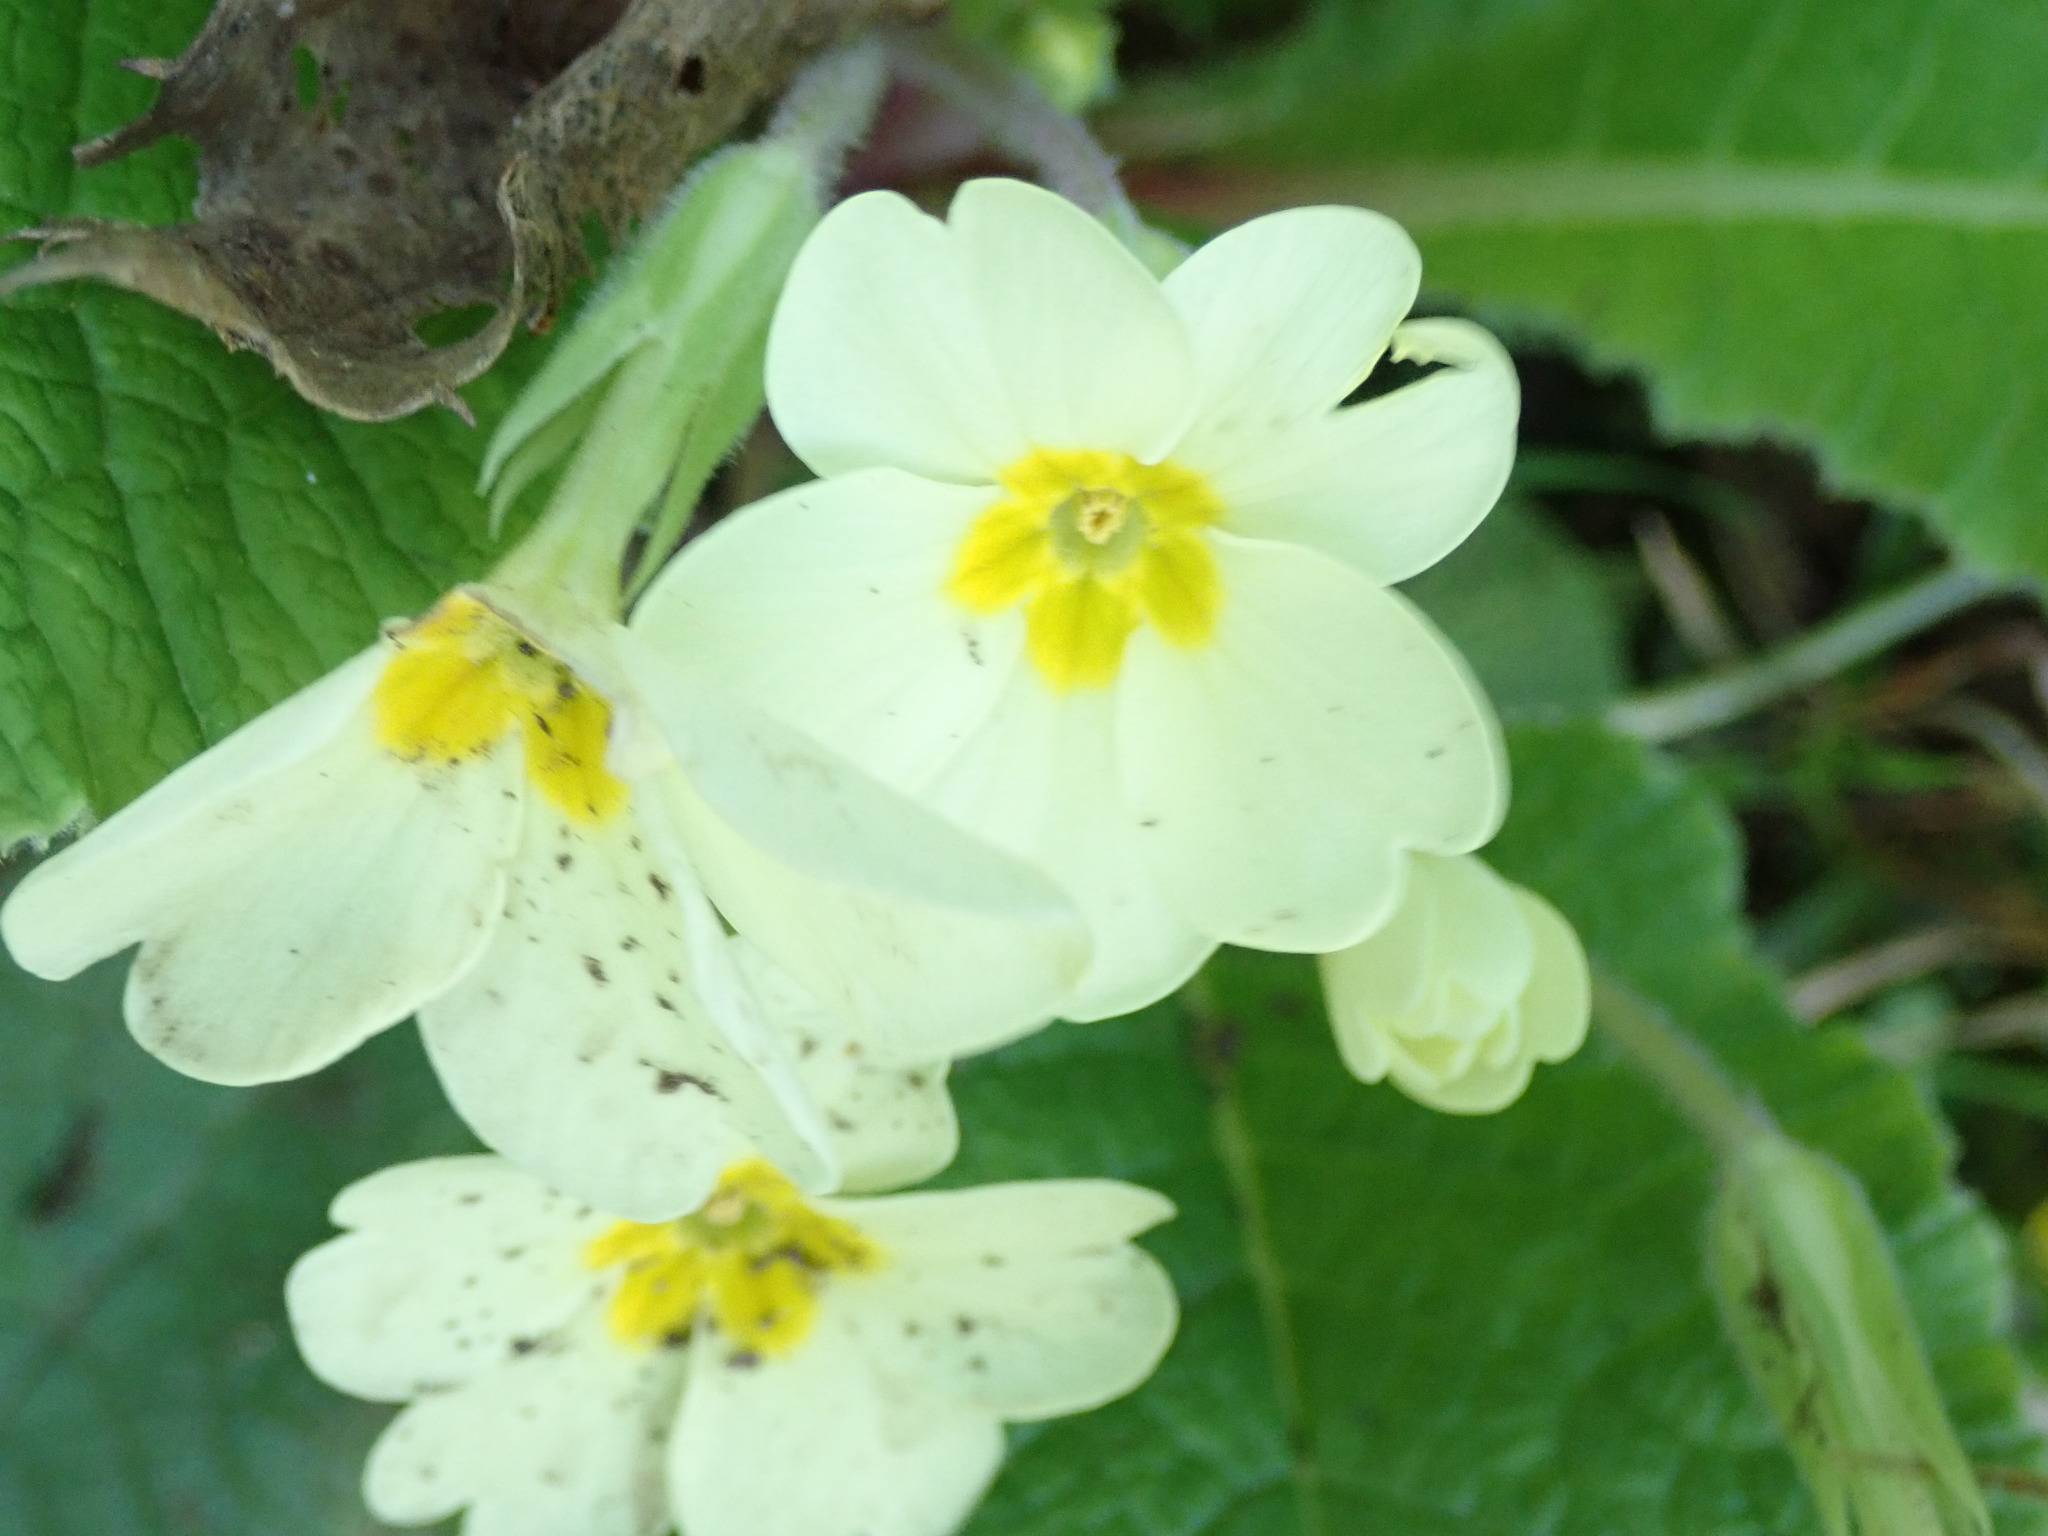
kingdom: Plantae
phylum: Tracheophyta
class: Magnoliopsida
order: Ericales
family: Primulaceae
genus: Primula
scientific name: Primula vulgaris
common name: Primrose
